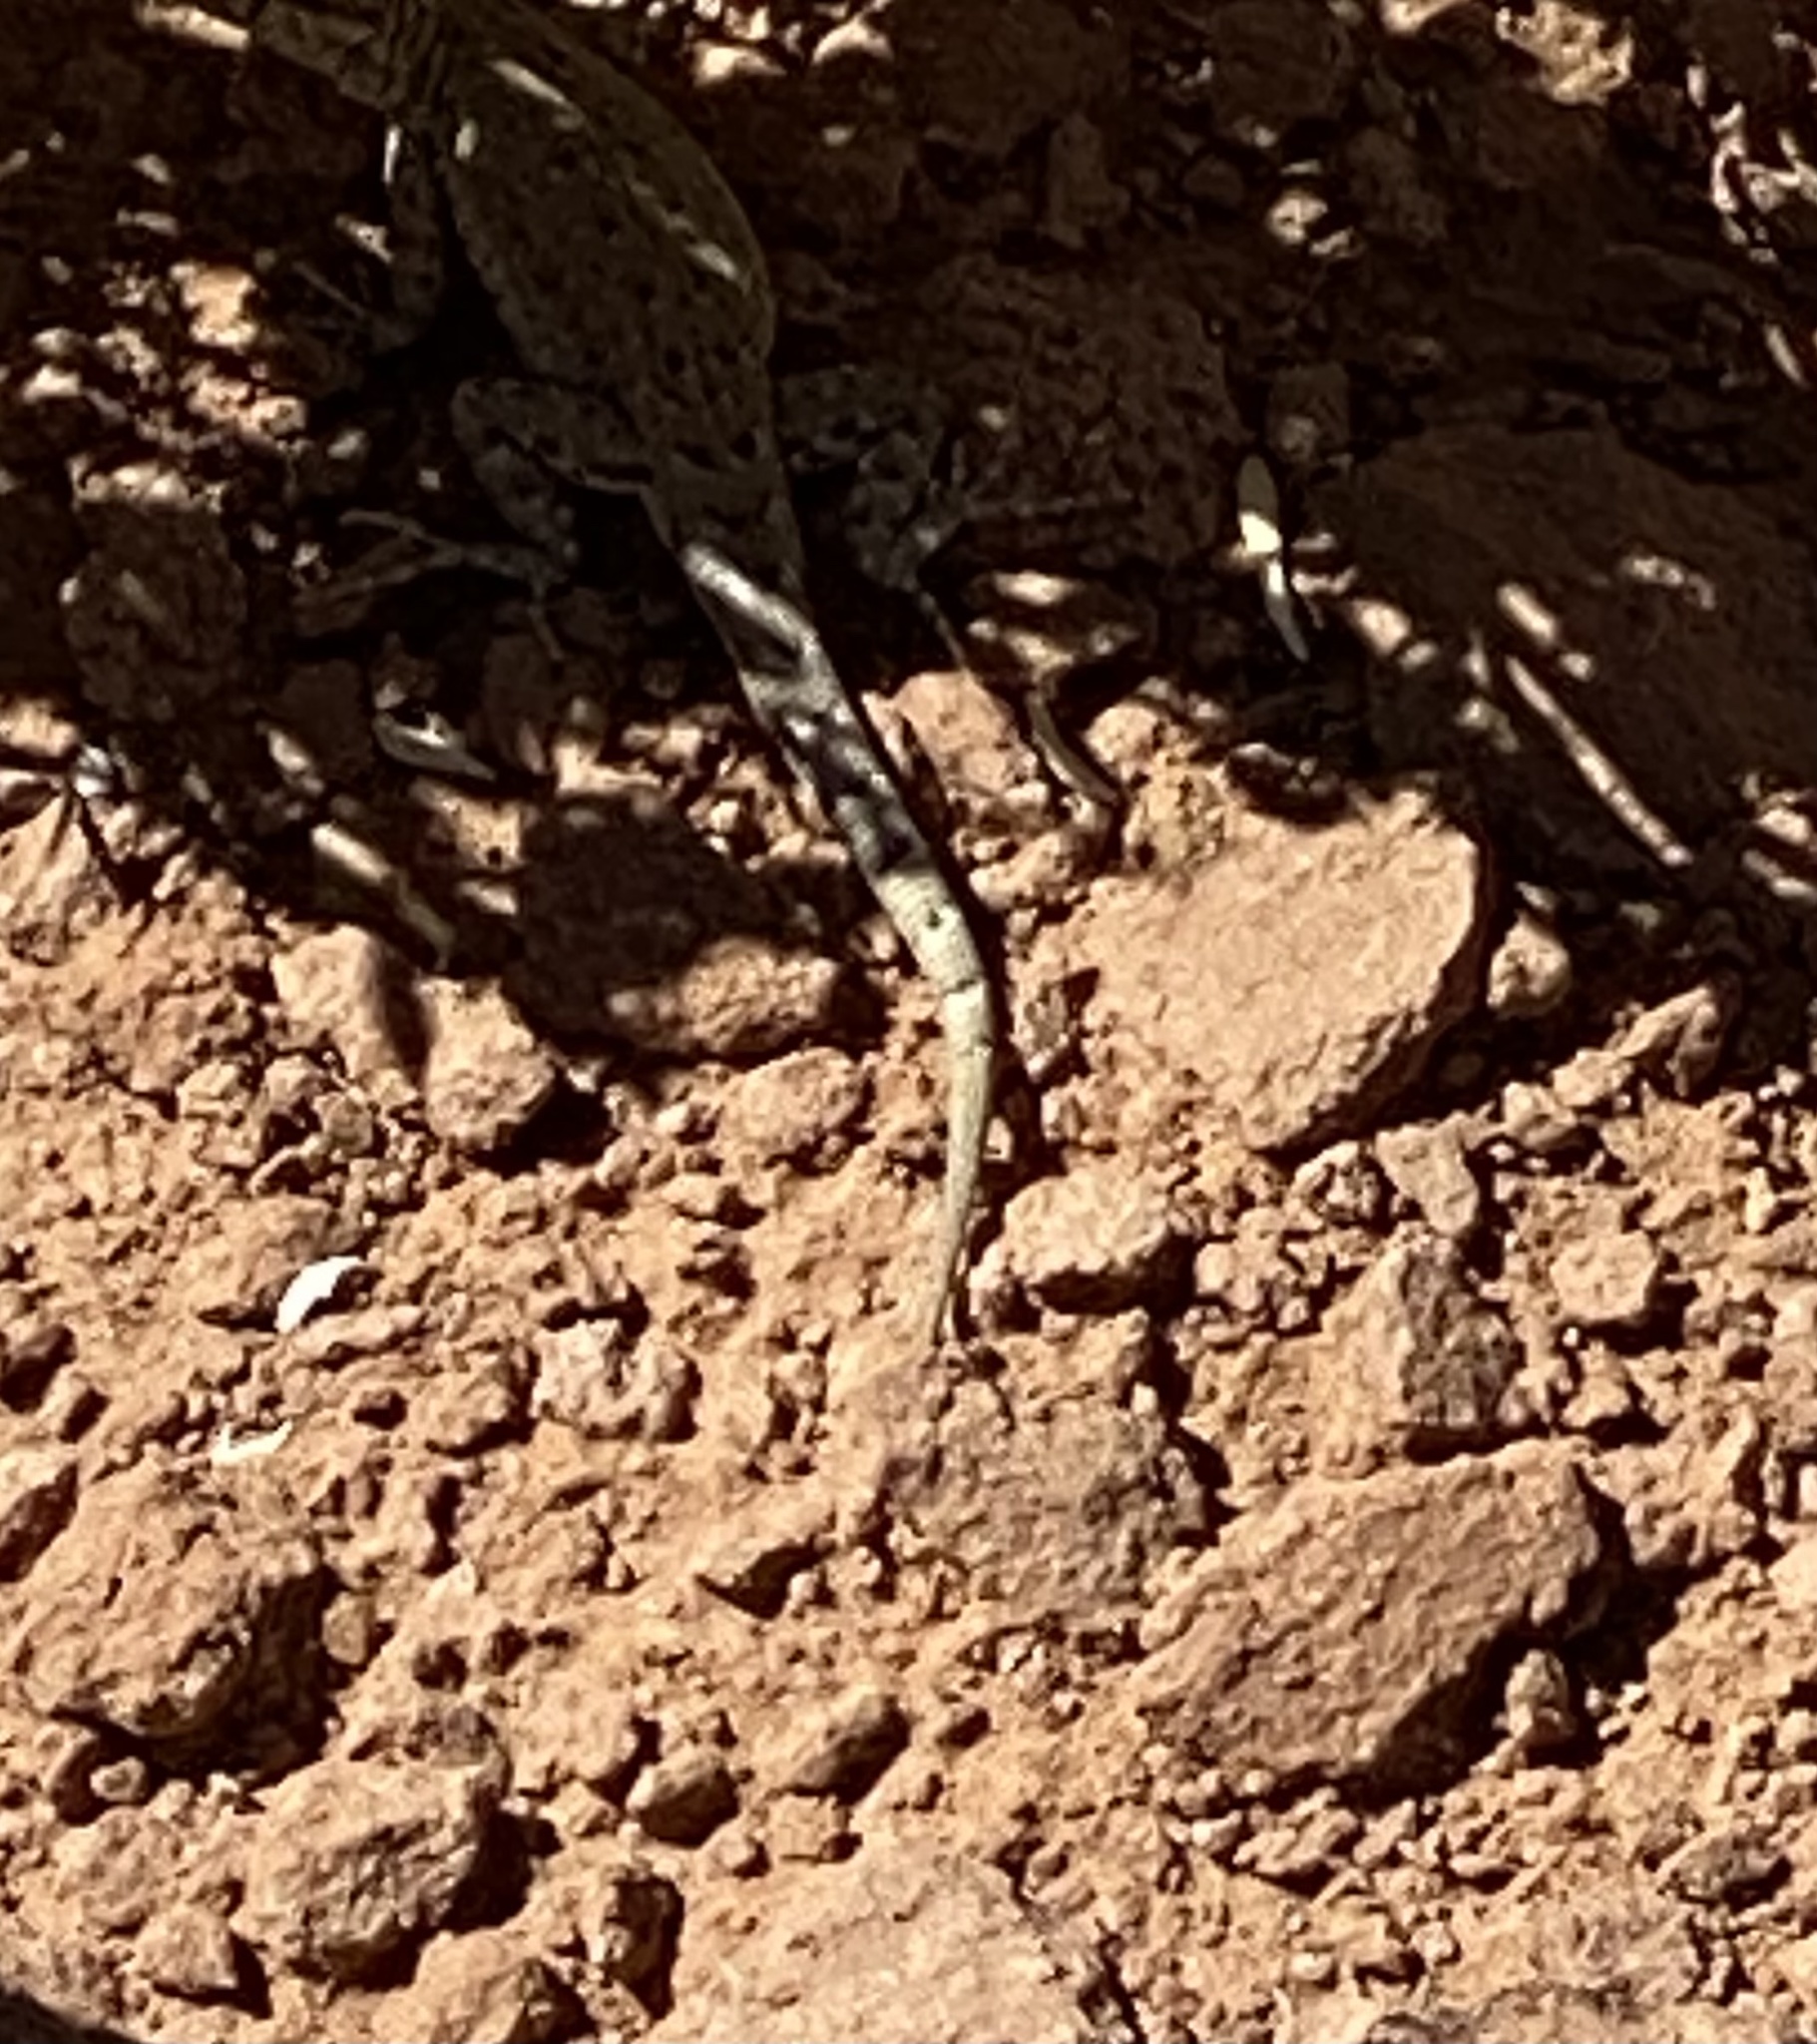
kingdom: Animalia
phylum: Chordata
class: Squamata
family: Phrynosomatidae
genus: Uta
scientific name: Uta stansburiana
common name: Side-blotched lizard
